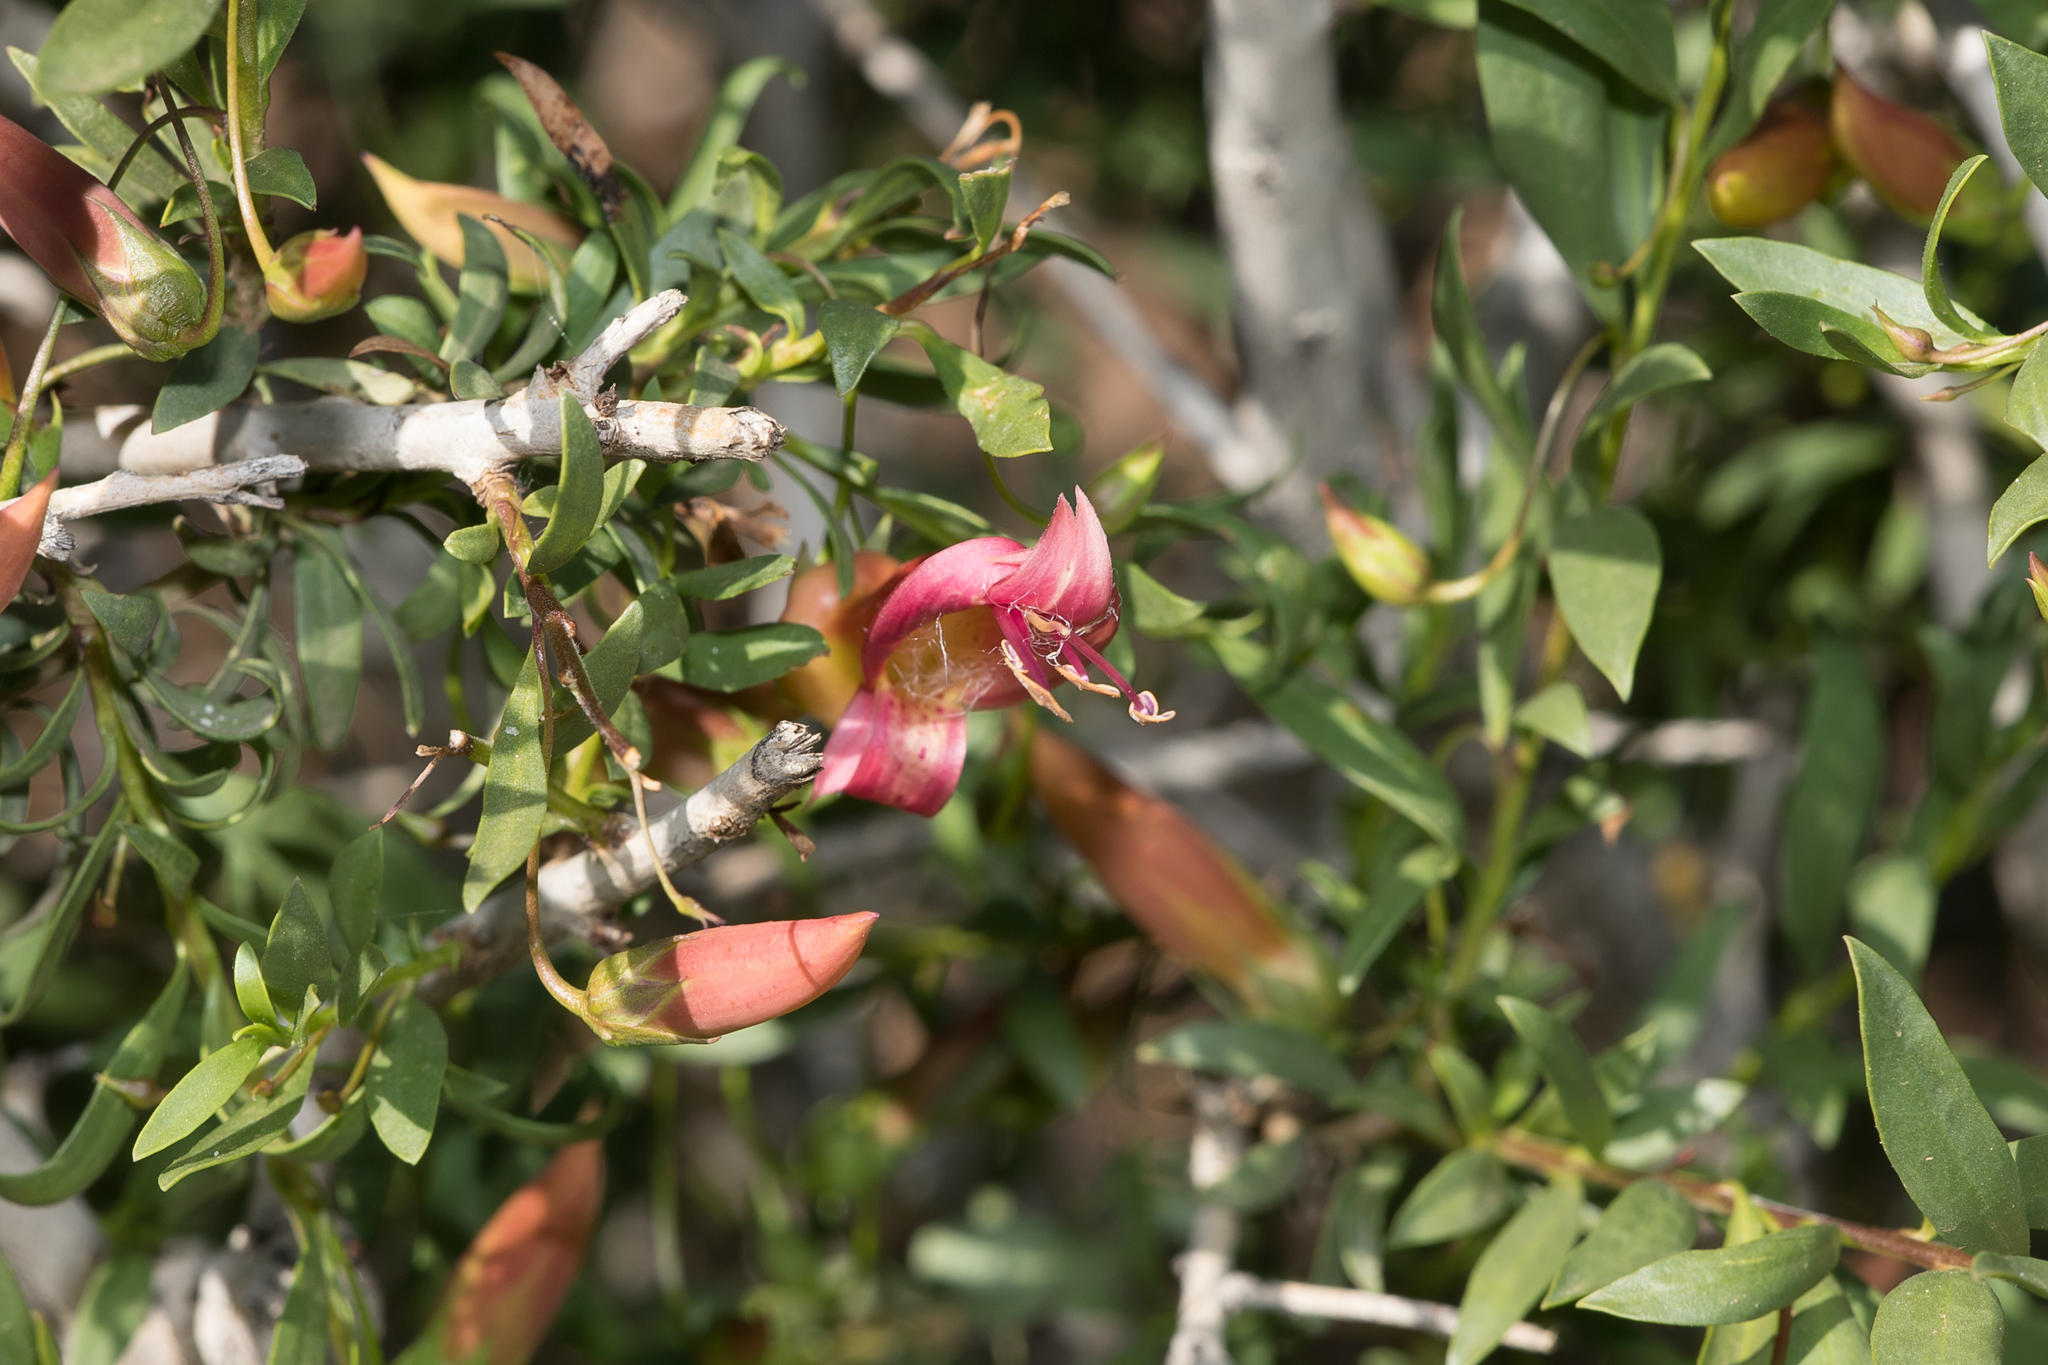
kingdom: Plantae
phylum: Tracheophyta
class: Magnoliopsida
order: Lamiales
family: Scrophulariaceae
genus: Eremophila
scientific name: Eremophila maculata
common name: Fuchsiabush
